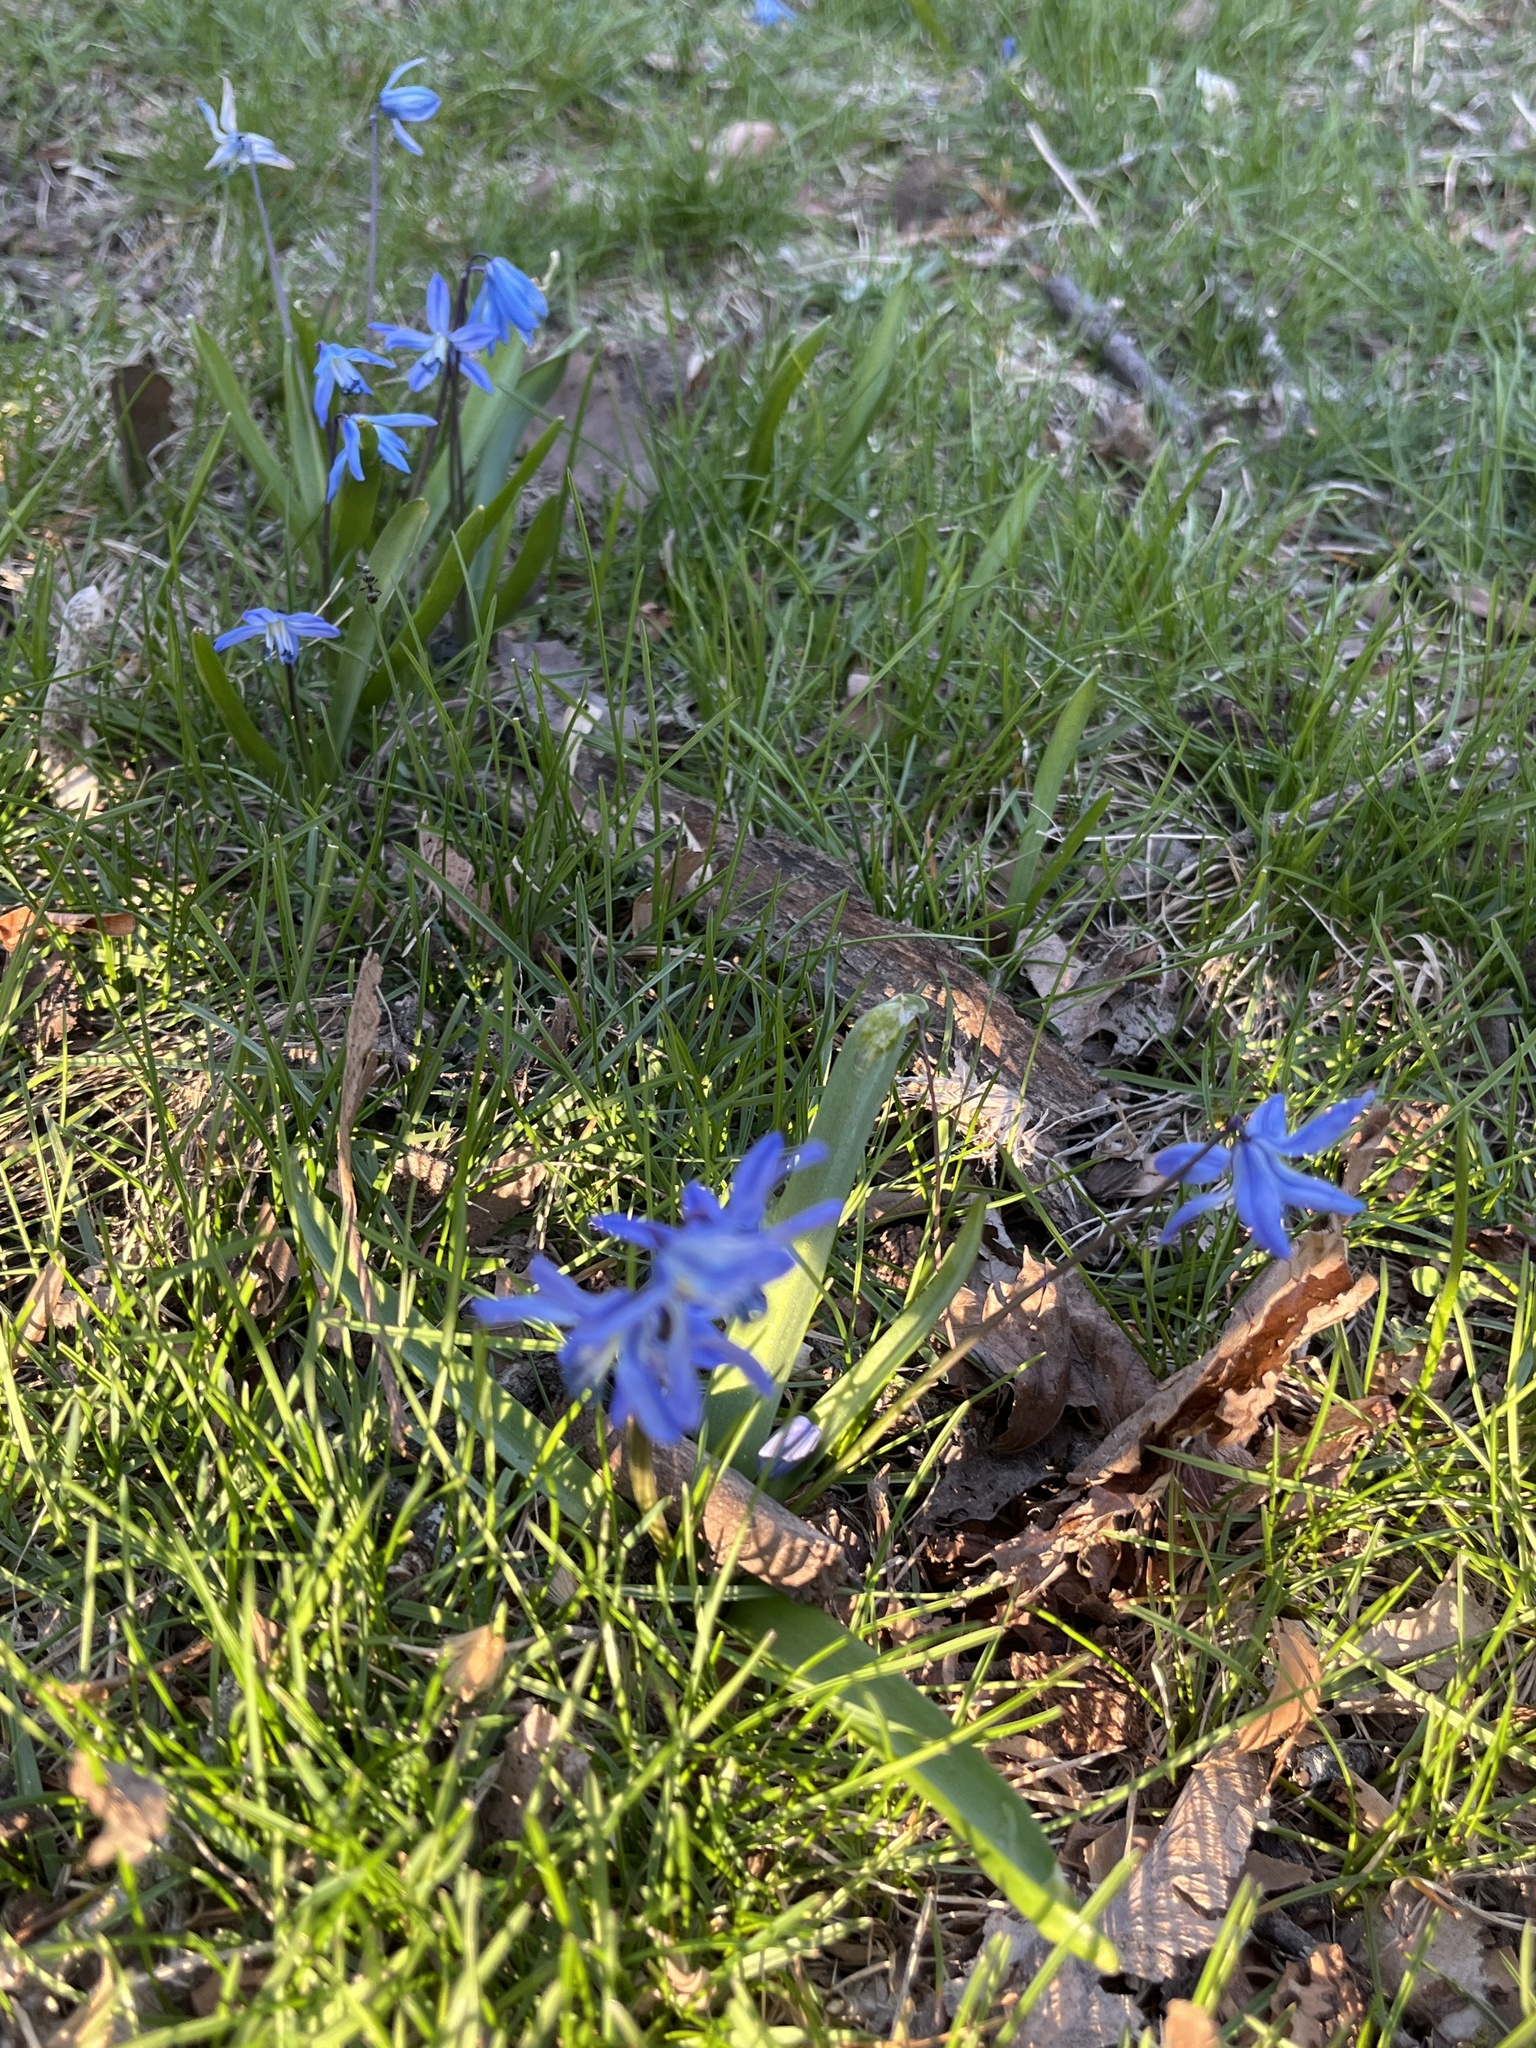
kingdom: Plantae
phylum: Tracheophyta
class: Liliopsida
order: Asparagales
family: Asparagaceae
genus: Scilla
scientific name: Scilla siberica
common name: Siberian squill
